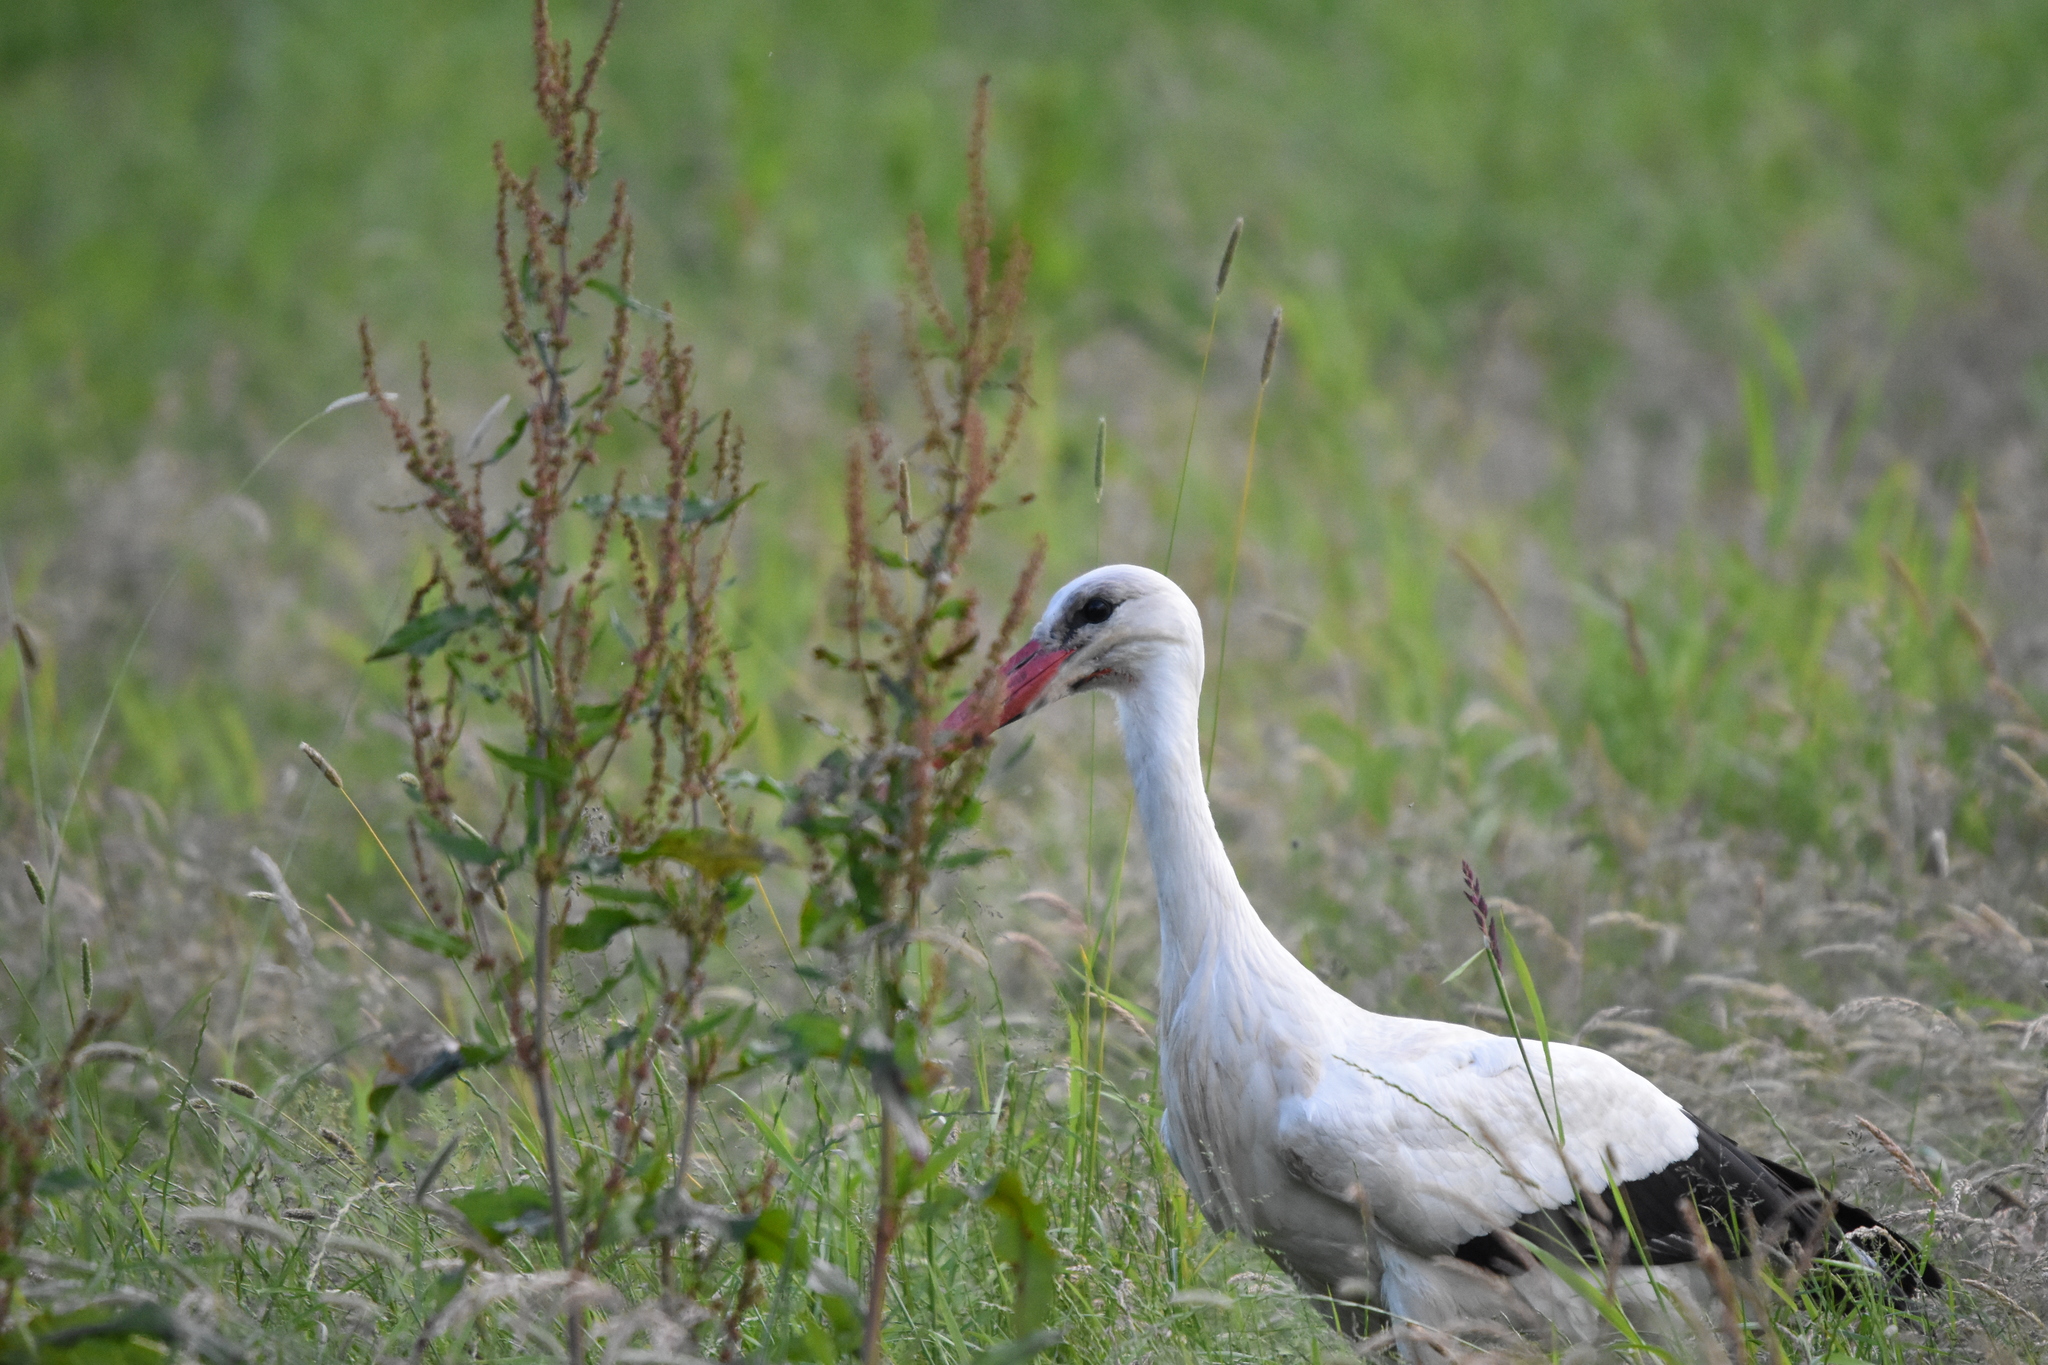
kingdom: Animalia
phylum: Chordata
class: Aves
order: Ciconiiformes
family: Ciconiidae
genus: Ciconia
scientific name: Ciconia ciconia
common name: White stork
